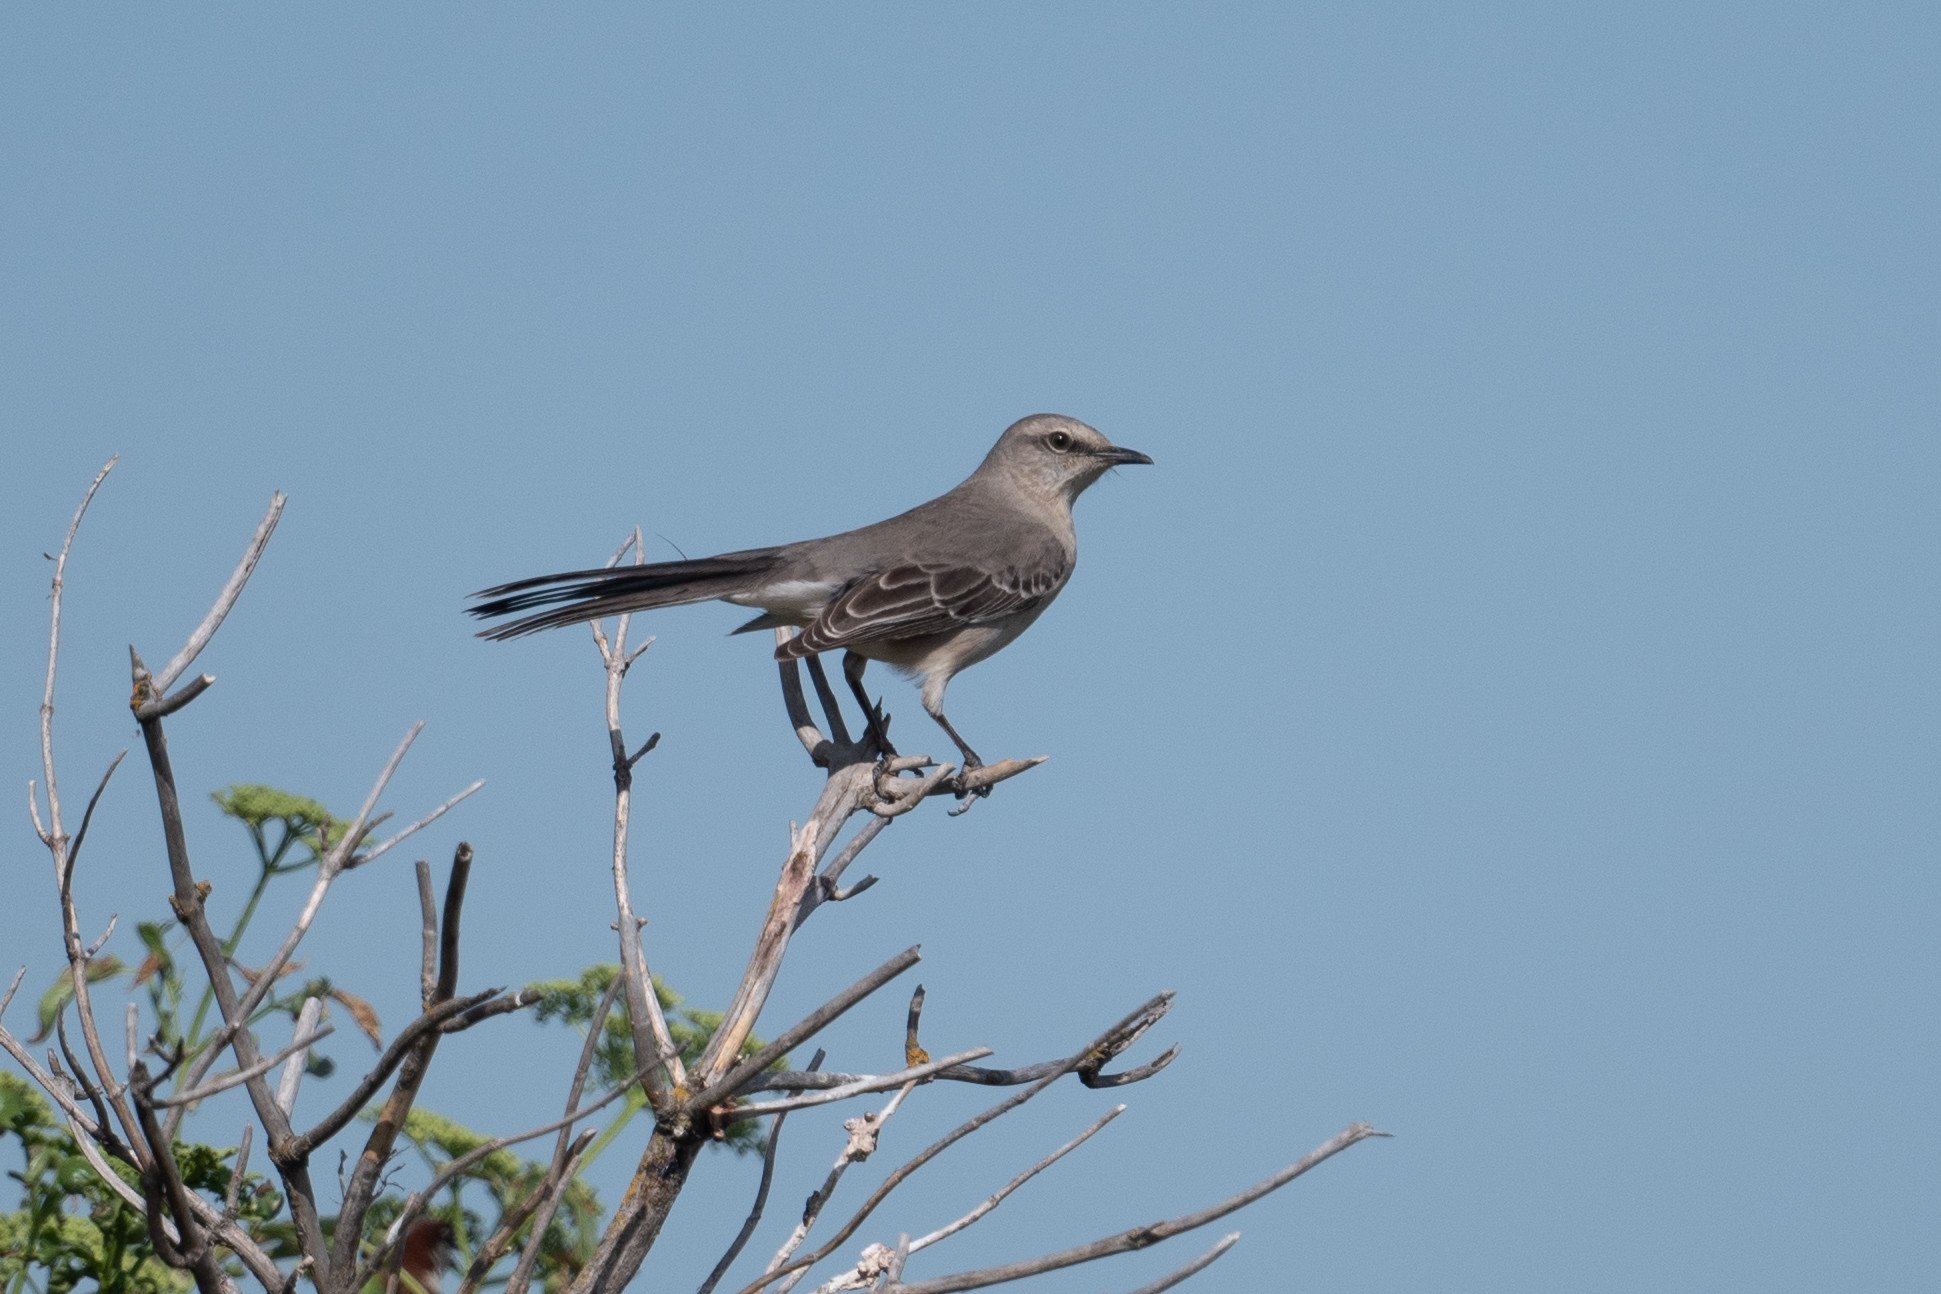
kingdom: Animalia
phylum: Chordata
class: Aves
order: Passeriformes
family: Mimidae
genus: Mimus
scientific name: Mimus polyglottos
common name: Northern mockingbird
